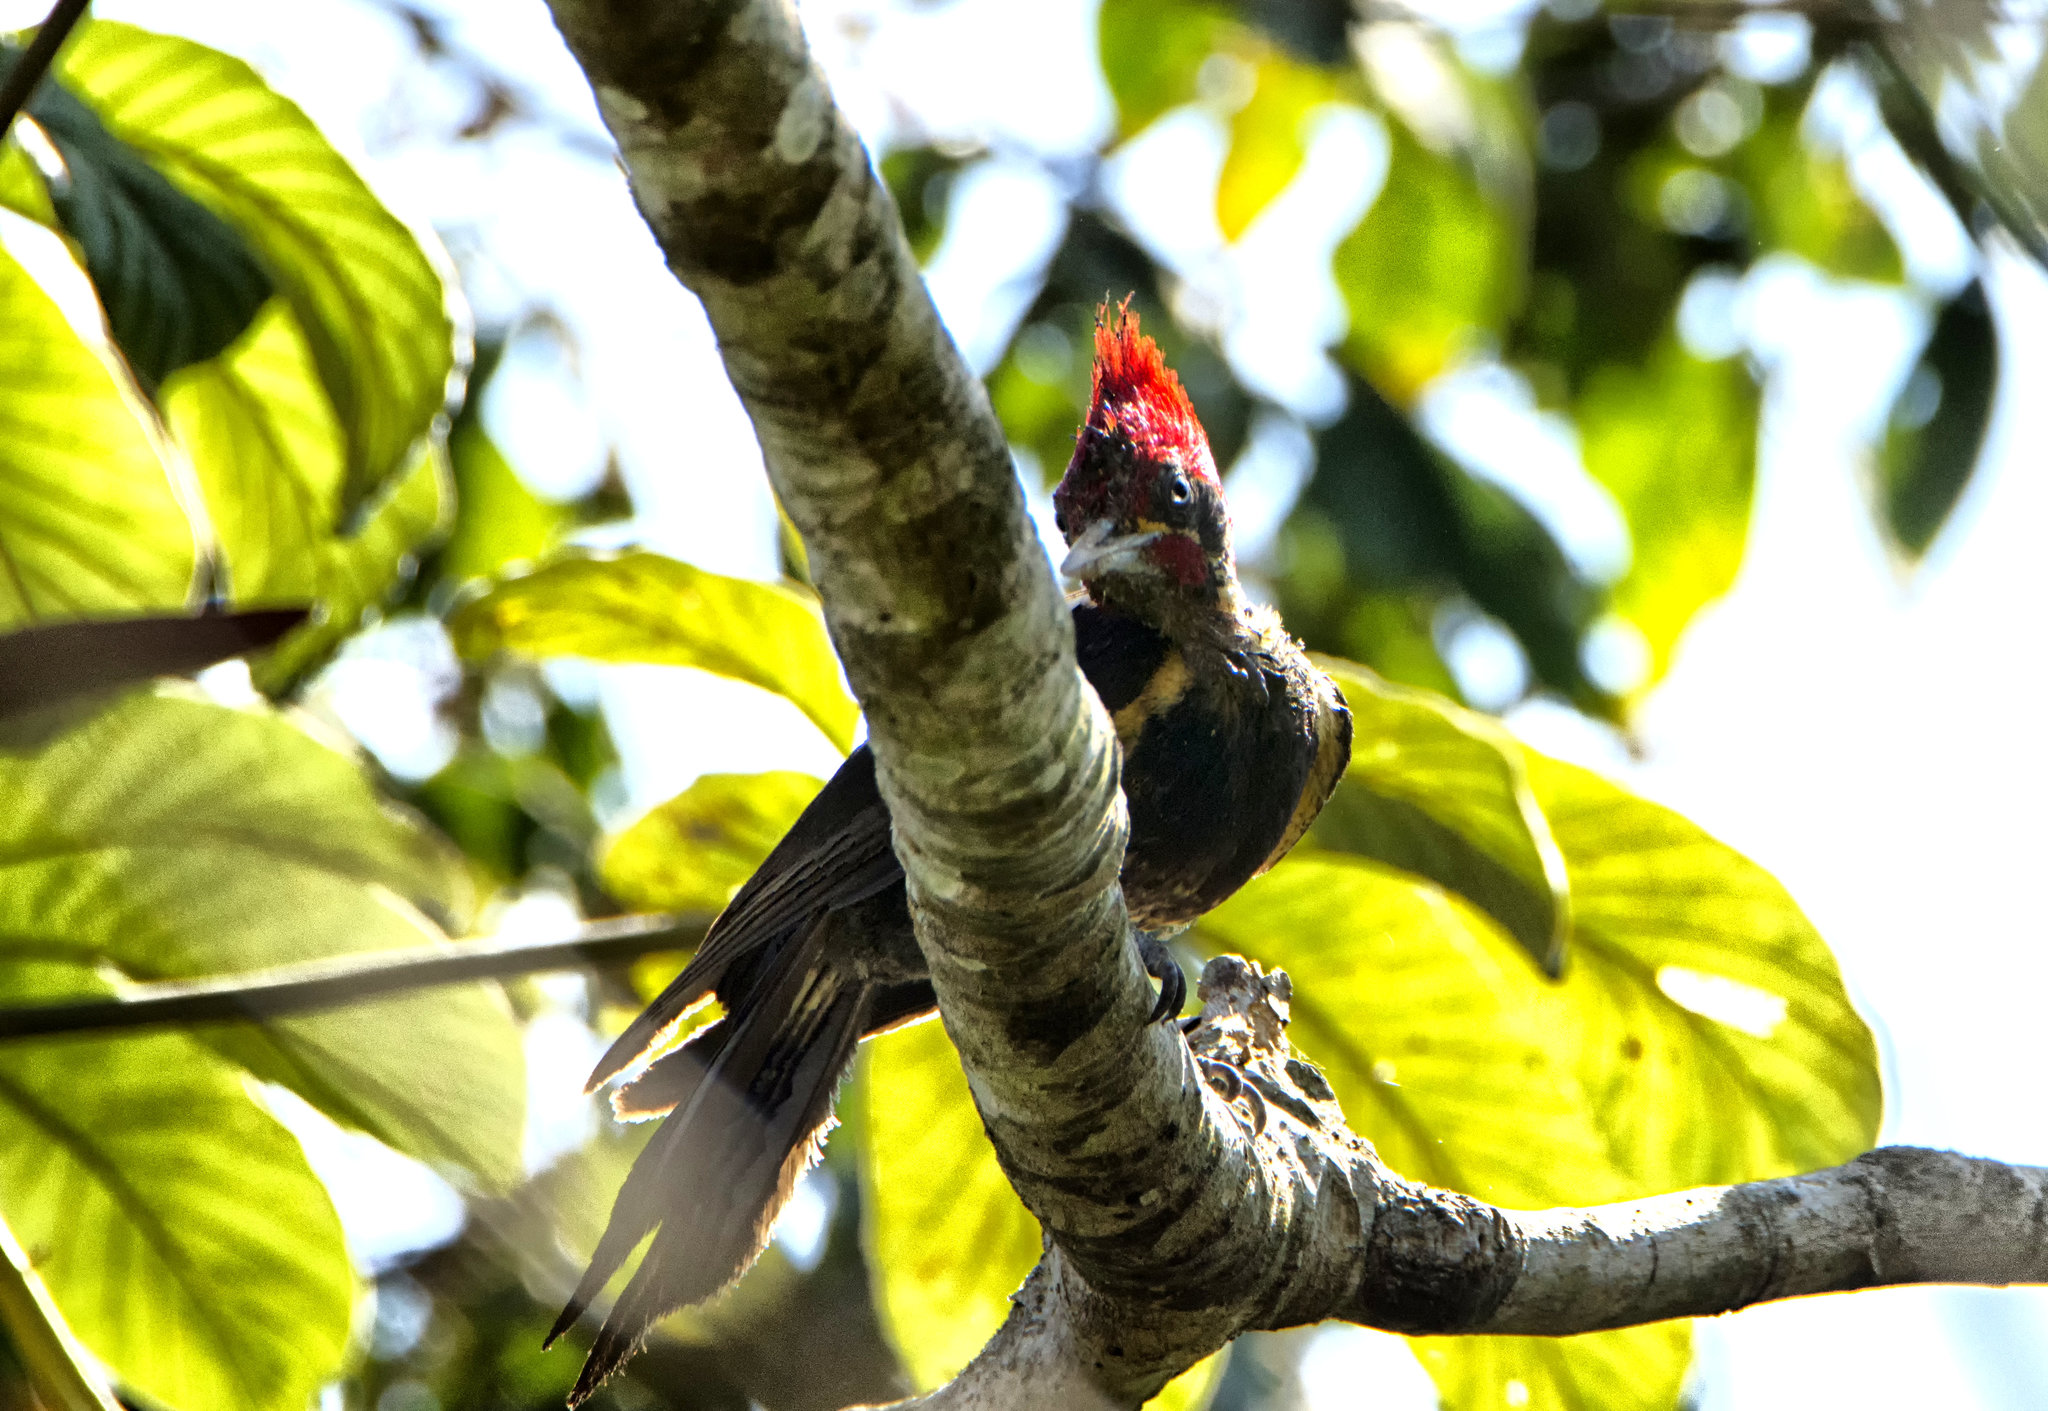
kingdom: Animalia
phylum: Chordata
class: Aves
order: Piciformes
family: Picidae
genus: Dryocopus
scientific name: Dryocopus lineatus
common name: Lineated woodpecker
